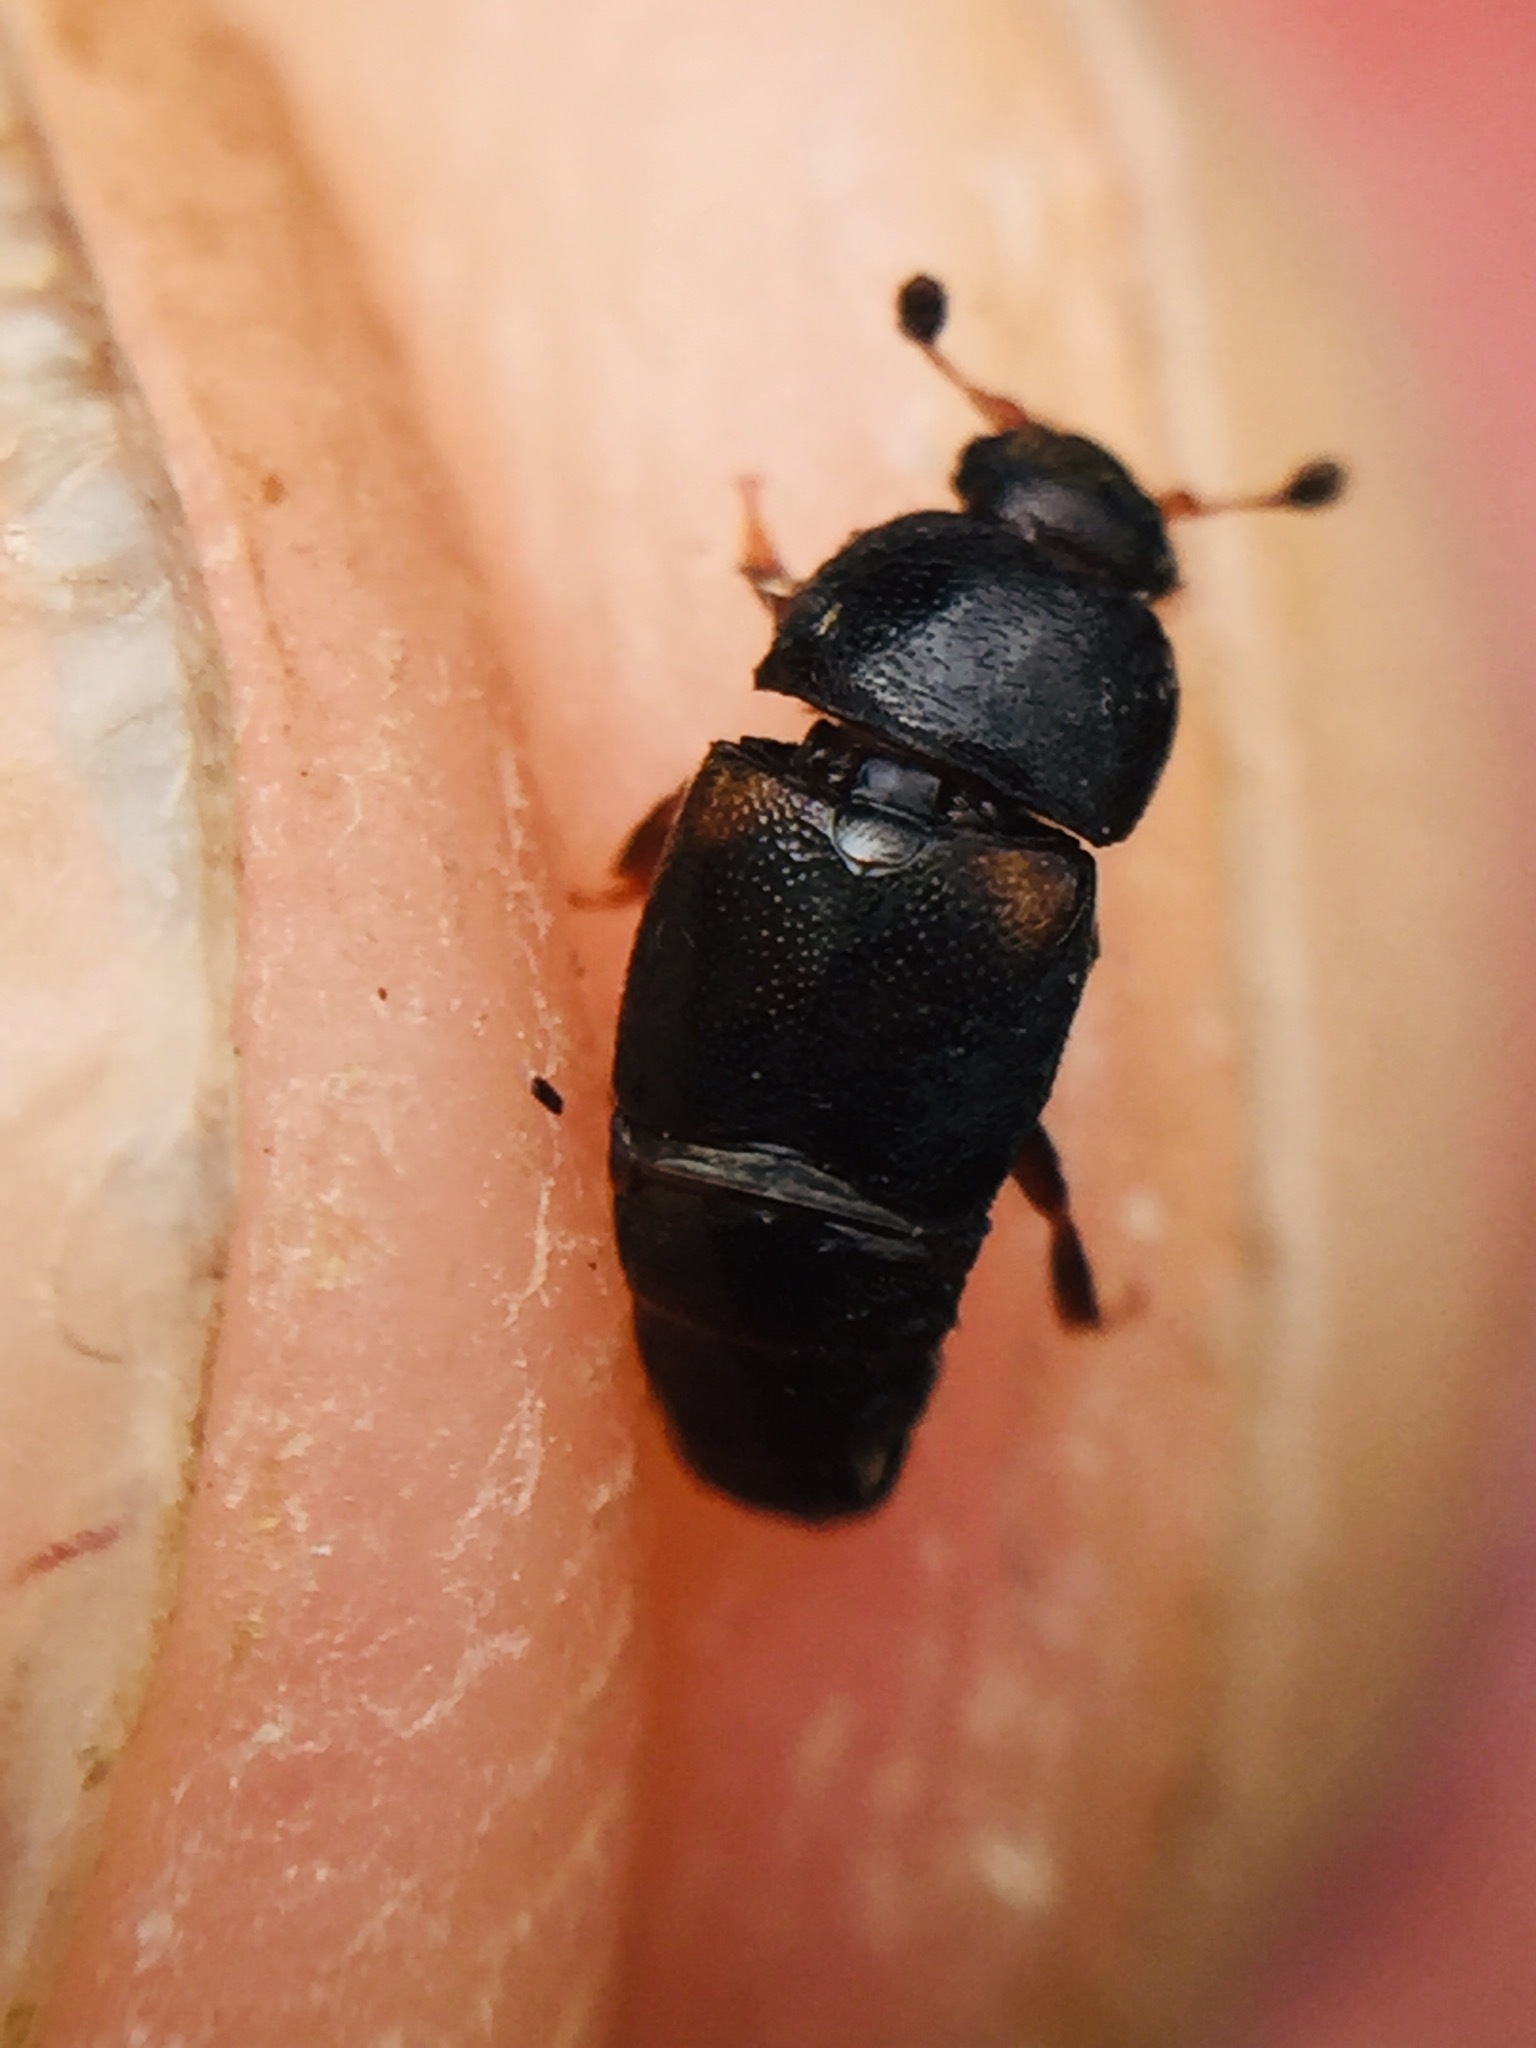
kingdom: Animalia
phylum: Arthropoda
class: Insecta
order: Coleoptera
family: Nitidulidae
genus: Urophorus
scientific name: Urophorus humeralis
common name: Sap beetle
